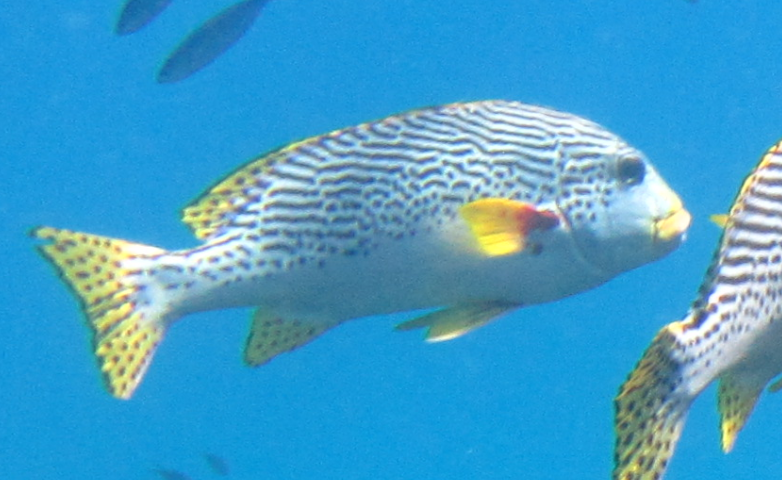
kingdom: Animalia
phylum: Chordata
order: Perciformes
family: Haemulidae
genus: Plectorhinchus
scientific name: Plectorhinchus lineatus
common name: Goldman's sweetlips
